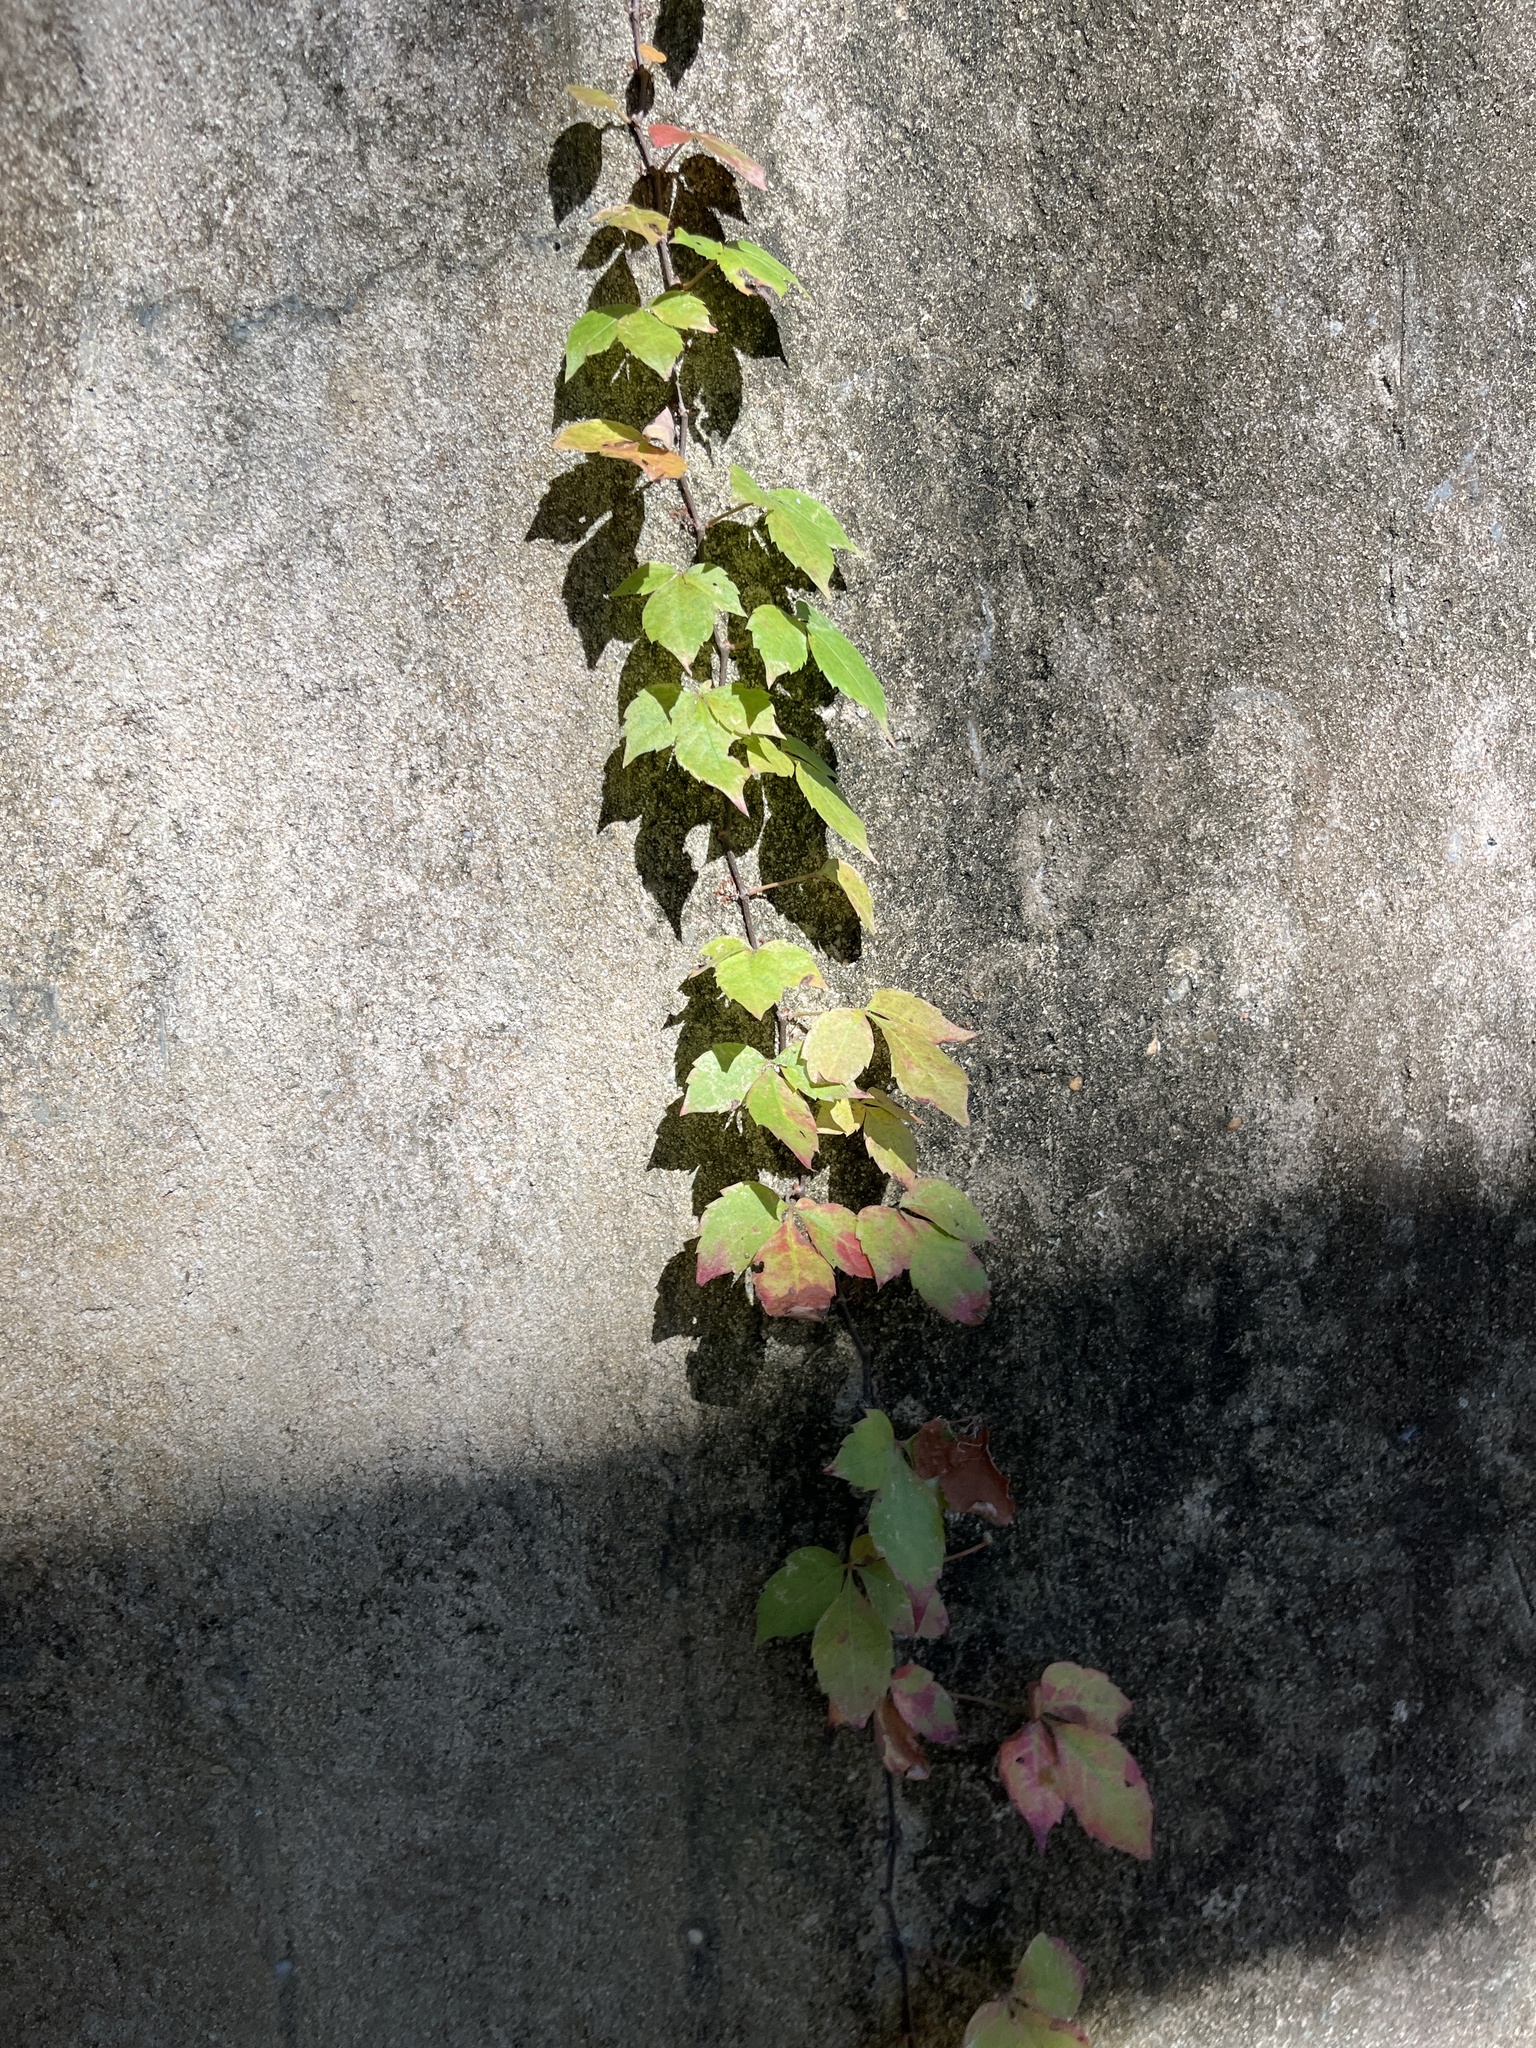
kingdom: Plantae
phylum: Tracheophyta
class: Magnoliopsida
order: Vitales
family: Vitaceae
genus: Parthenocissus
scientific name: Parthenocissus quinquefolia
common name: Virginia-creeper
